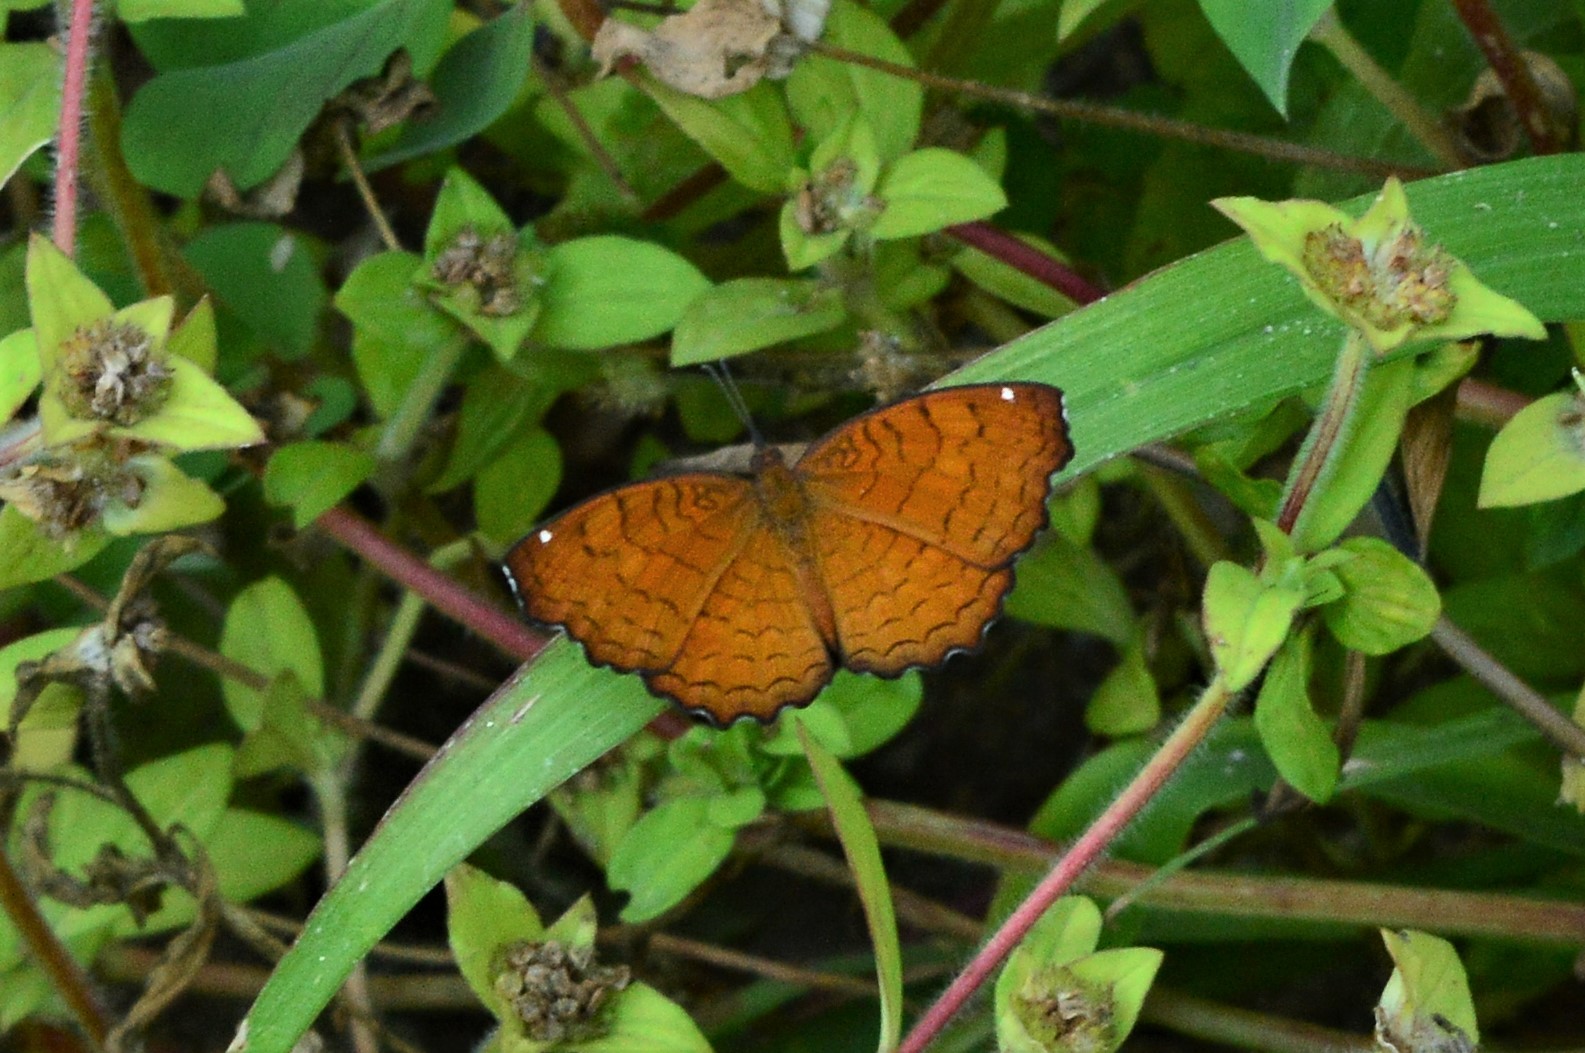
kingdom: Animalia
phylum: Arthropoda
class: Insecta
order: Lepidoptera
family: Nymphalidae
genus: Ariadne
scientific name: Ariadne ariadne
